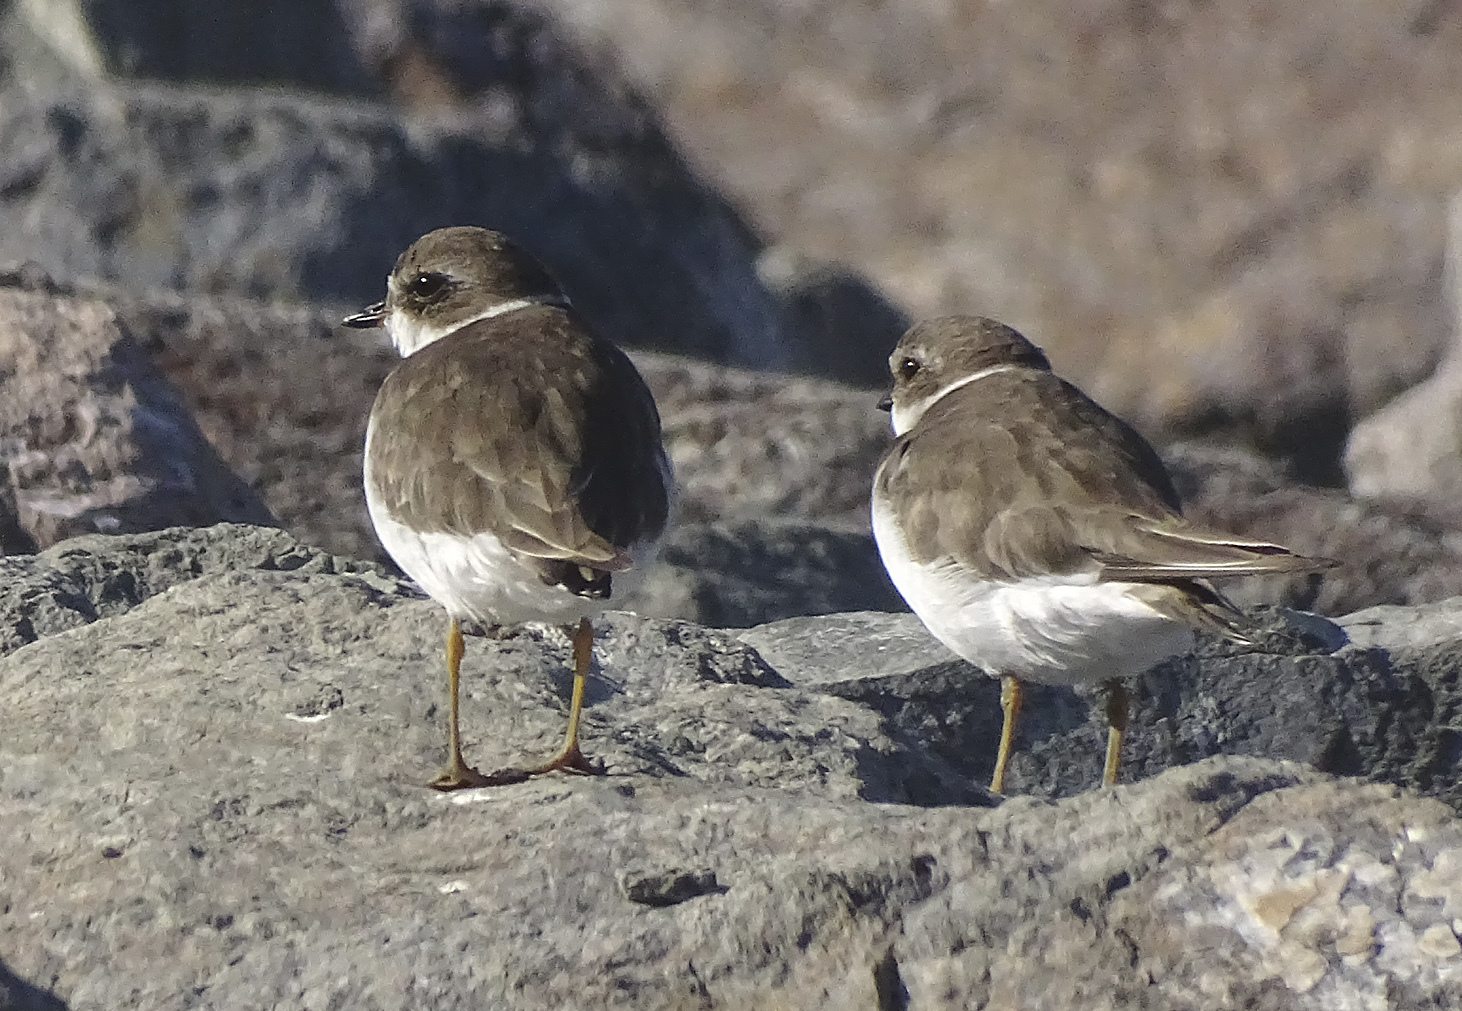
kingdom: Animalia
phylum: Chordata
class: Aves
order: Charadriiformes
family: Charadriidae
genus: Charadrius
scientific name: Charadrius semipalmatus
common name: Semipalmated plover
